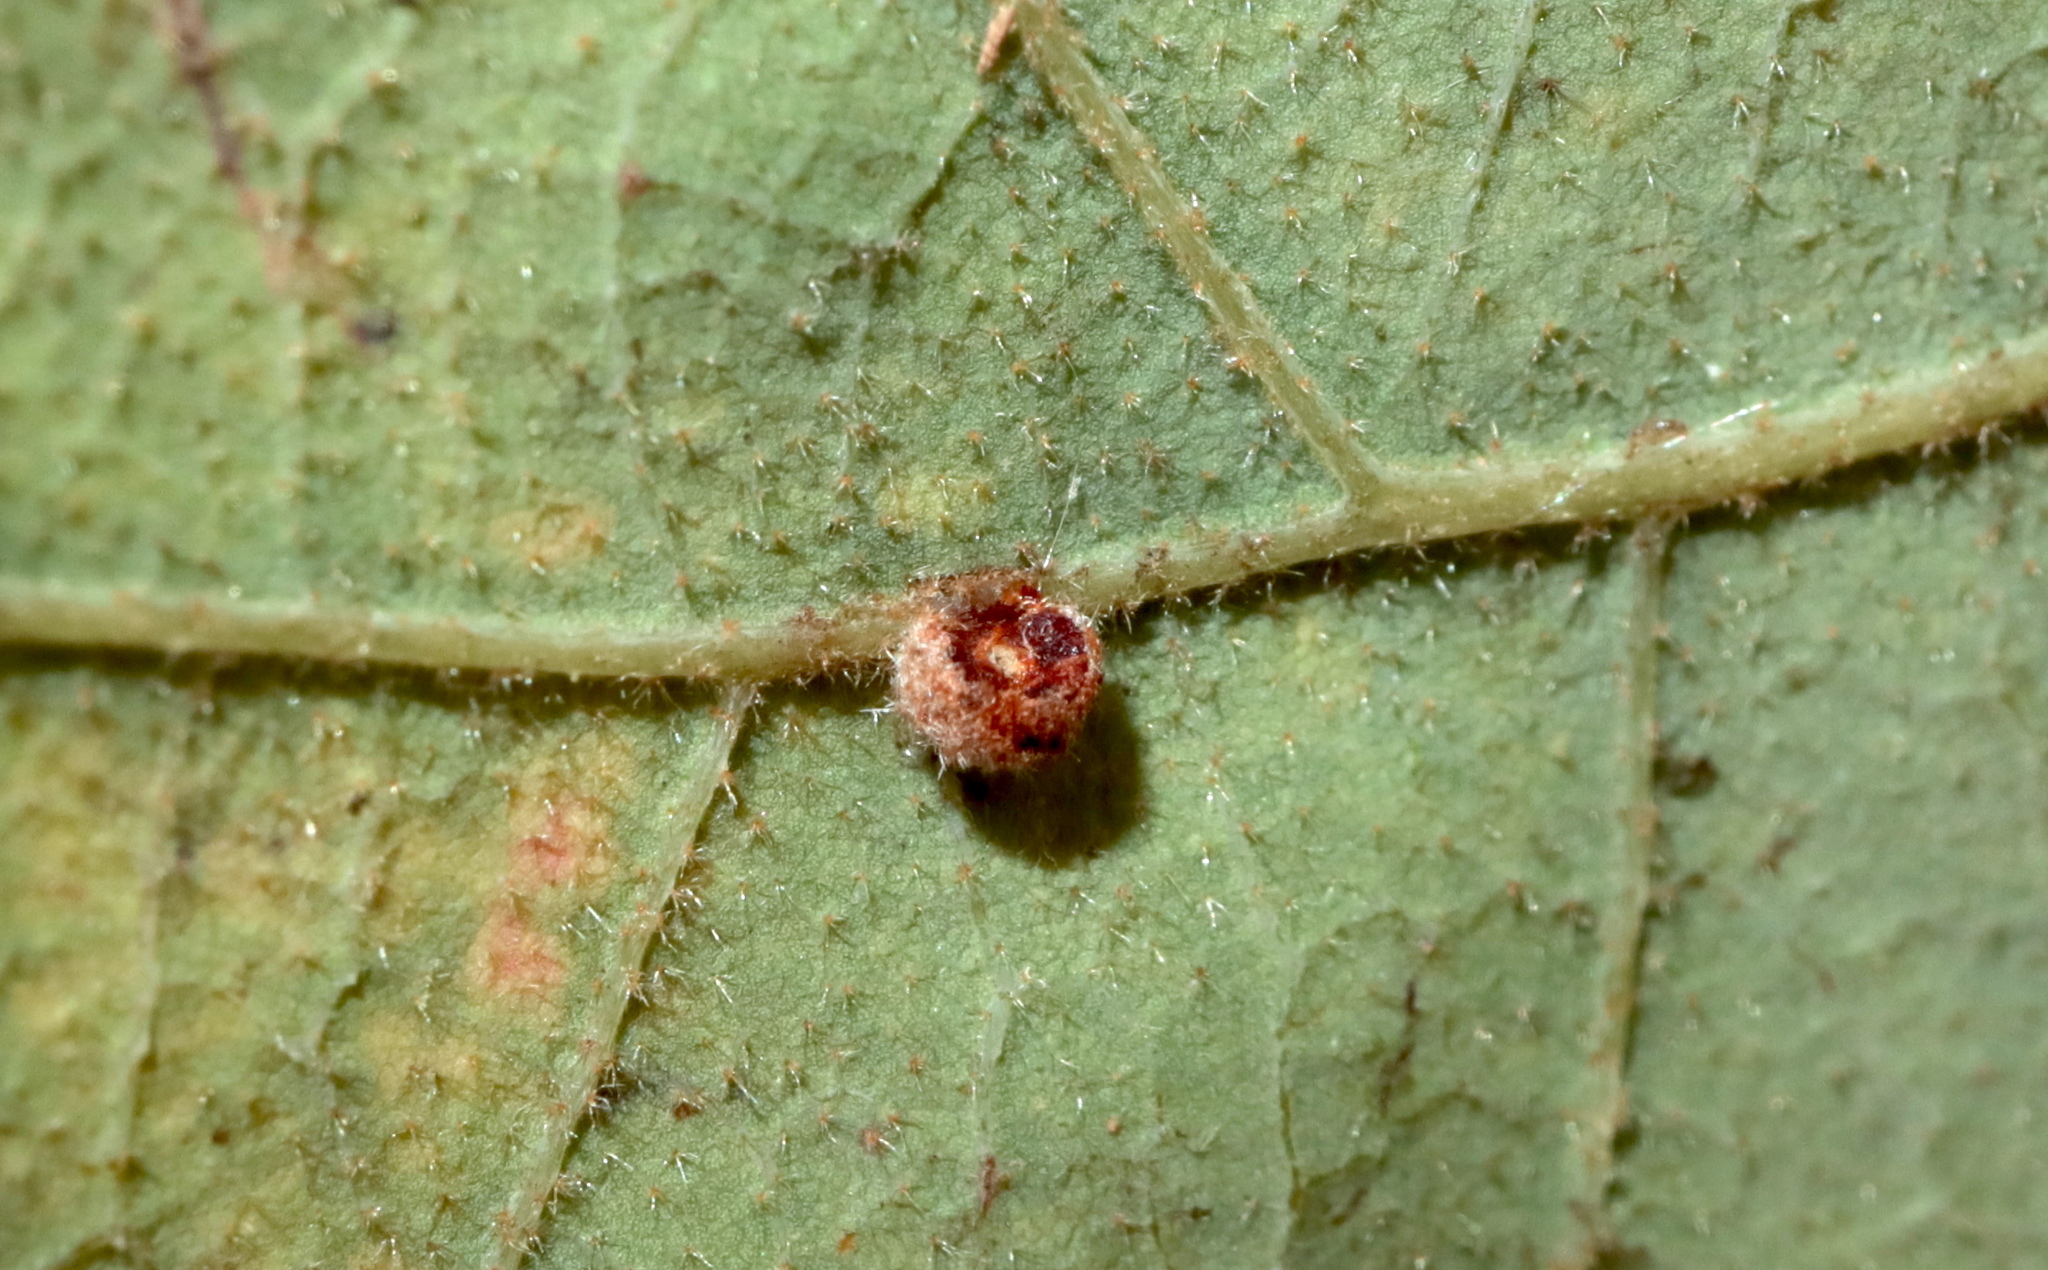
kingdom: Animalia
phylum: Arthropoda
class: Insecta
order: Hymenoptera
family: Cynipidae
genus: Atrusca
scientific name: Atrusca
